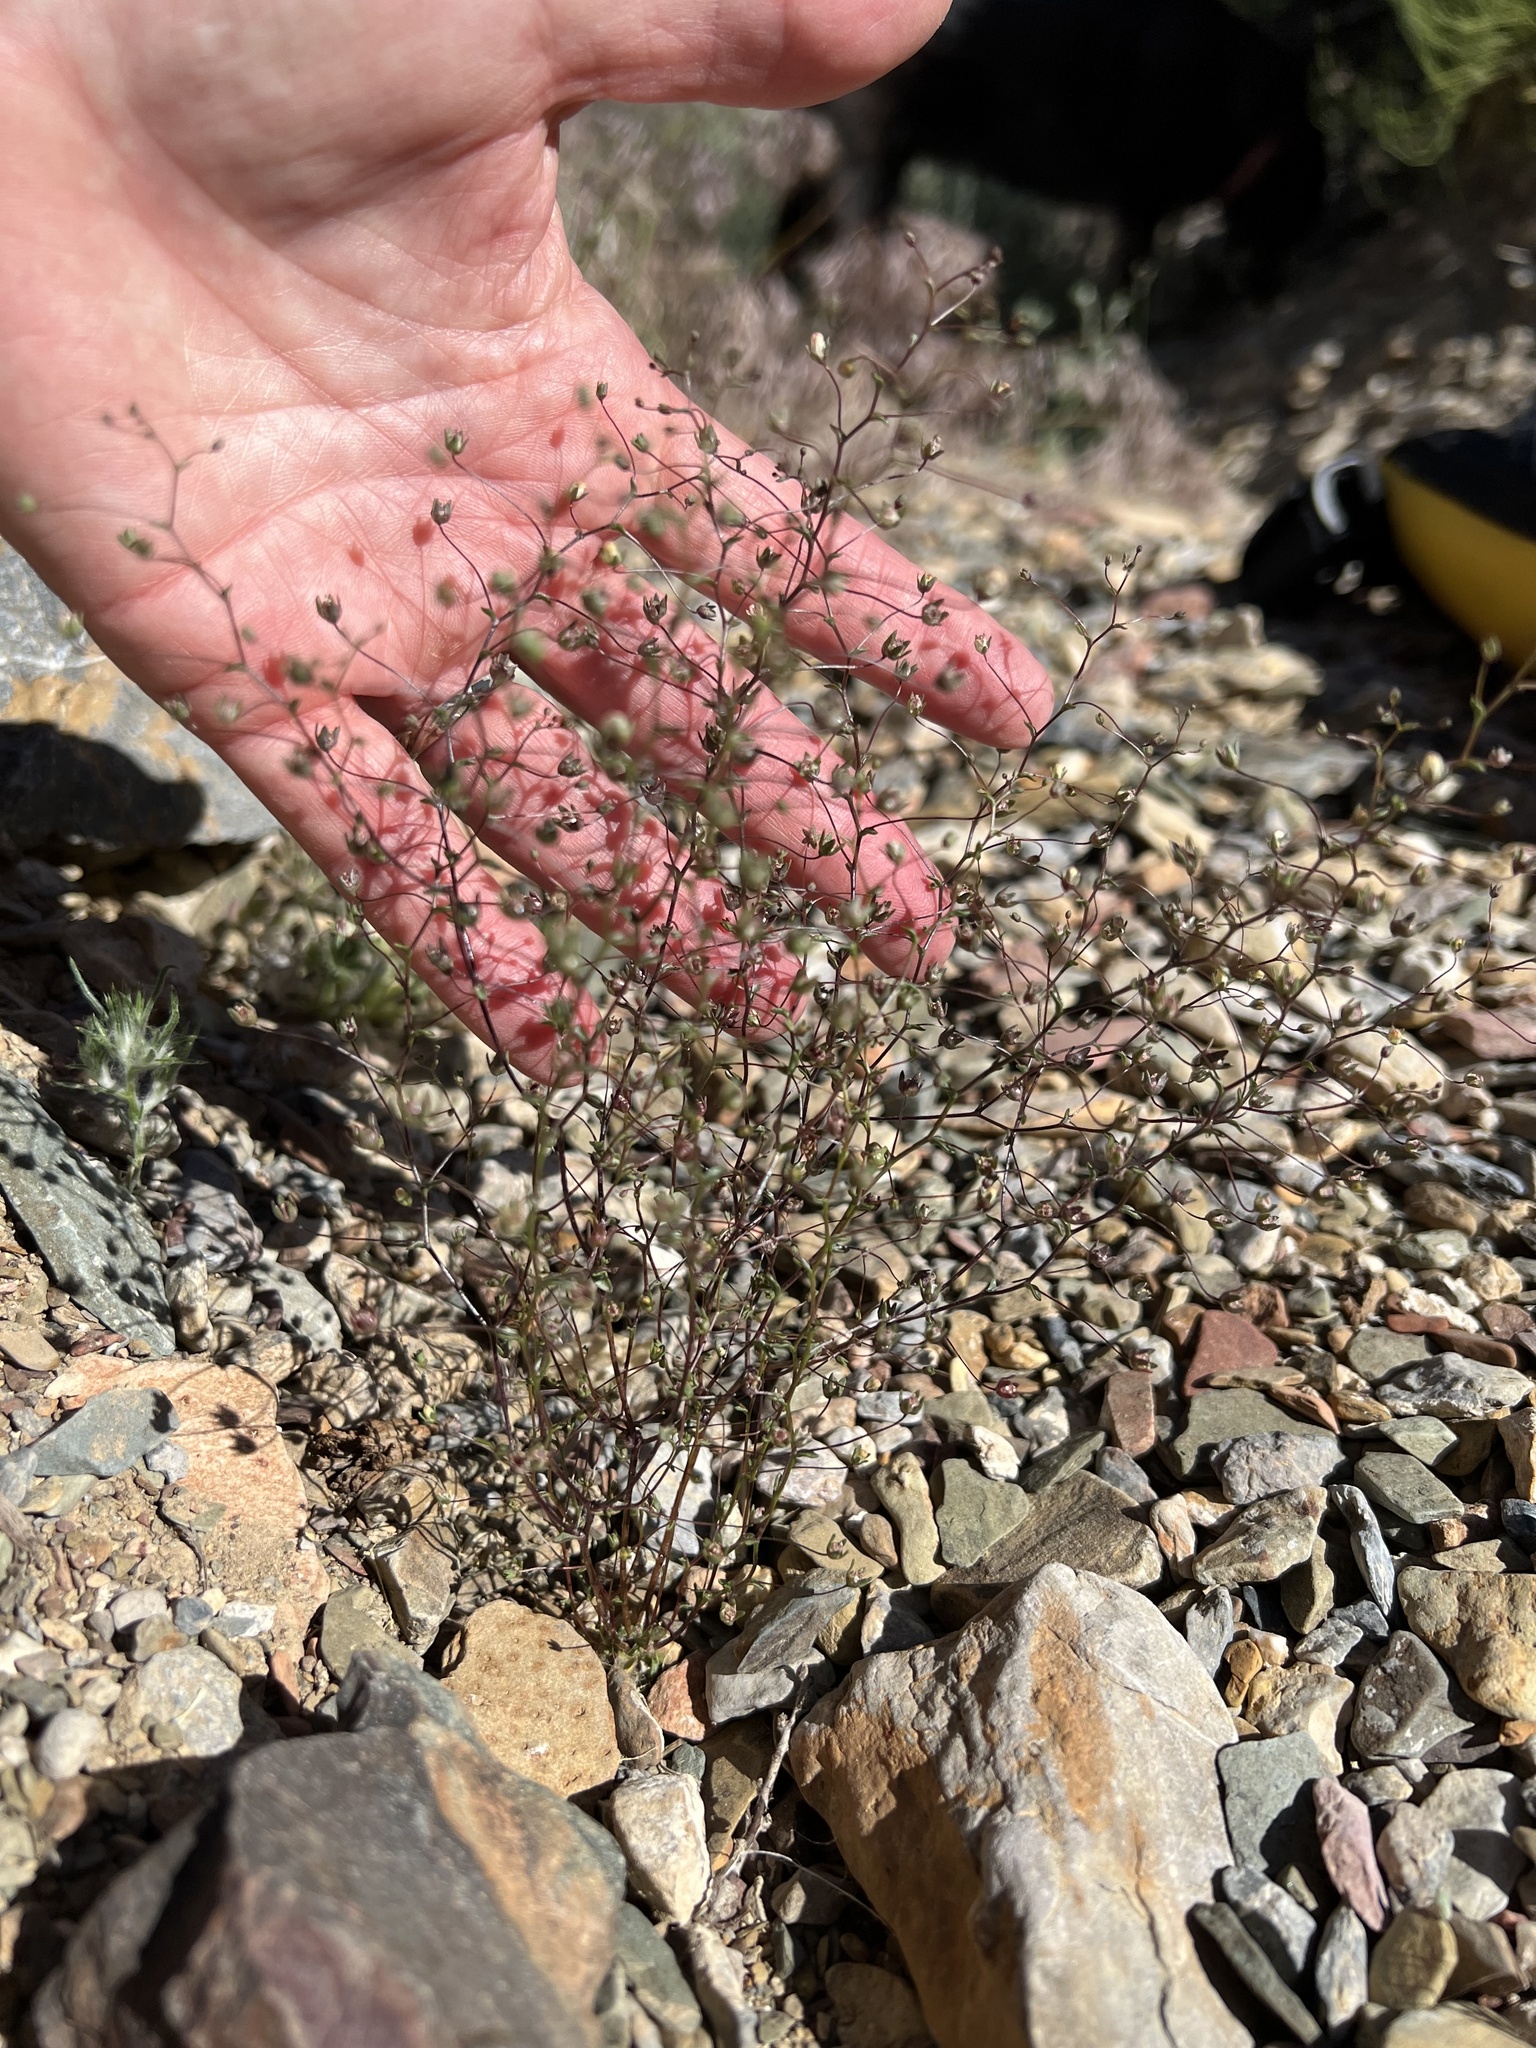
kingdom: Plantae
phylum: Tracheophyta
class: Magnoliopsida
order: Asterales
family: Campanulaceae
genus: Nemacladus
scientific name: Nemacladus inyoensis
